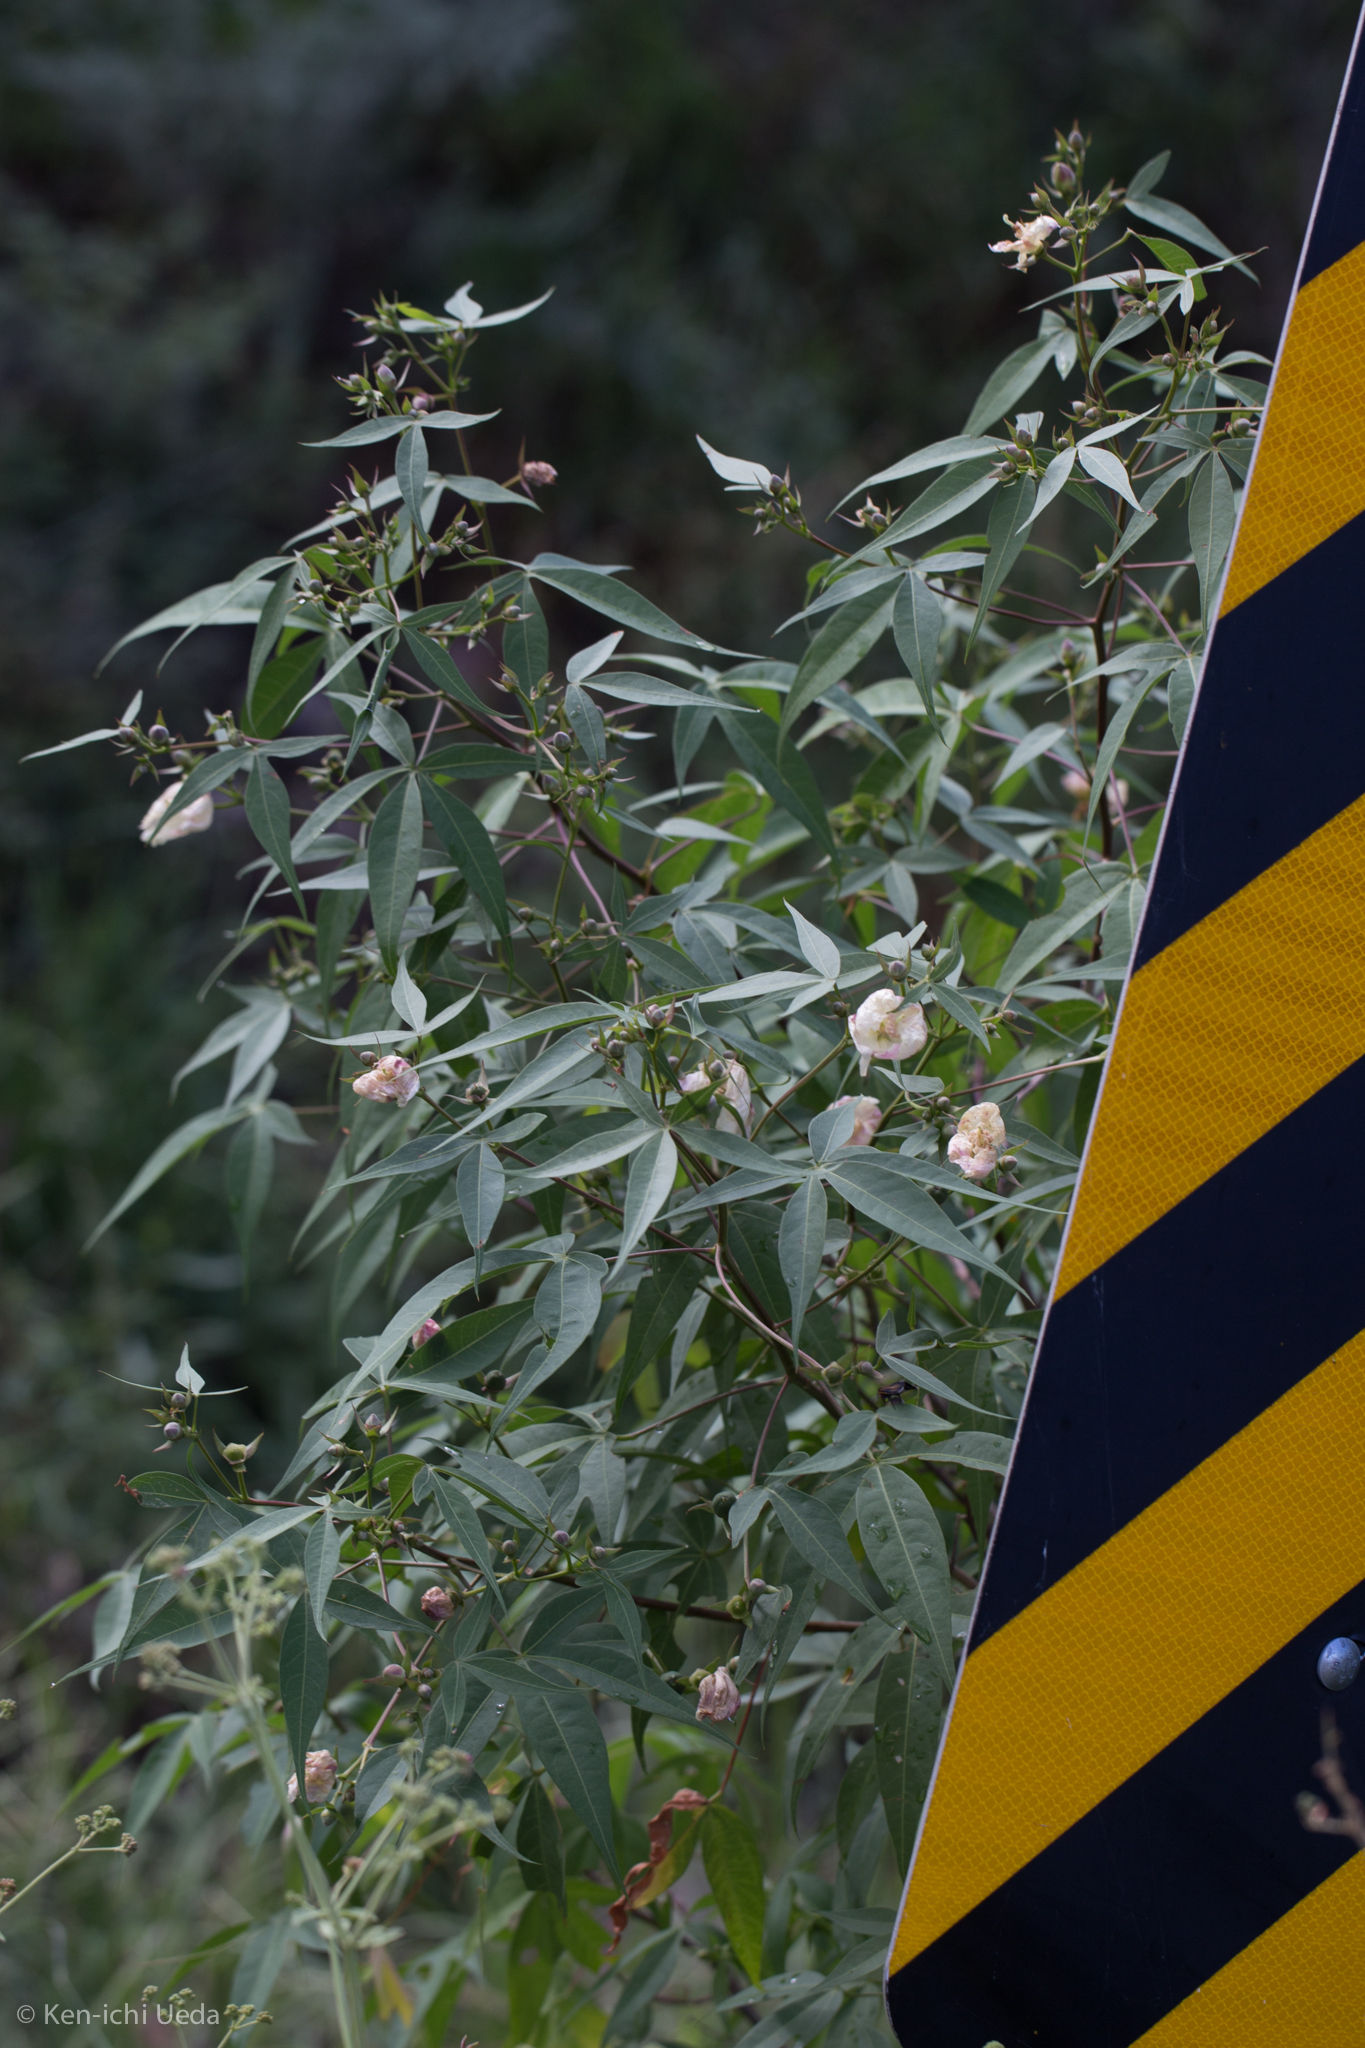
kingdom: Plantae
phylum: Tracheophyta
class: Magnoliopsida
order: Malvales
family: Malvaceae
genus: Gossypium
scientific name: Gossypium thurberi
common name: Desert cotton
